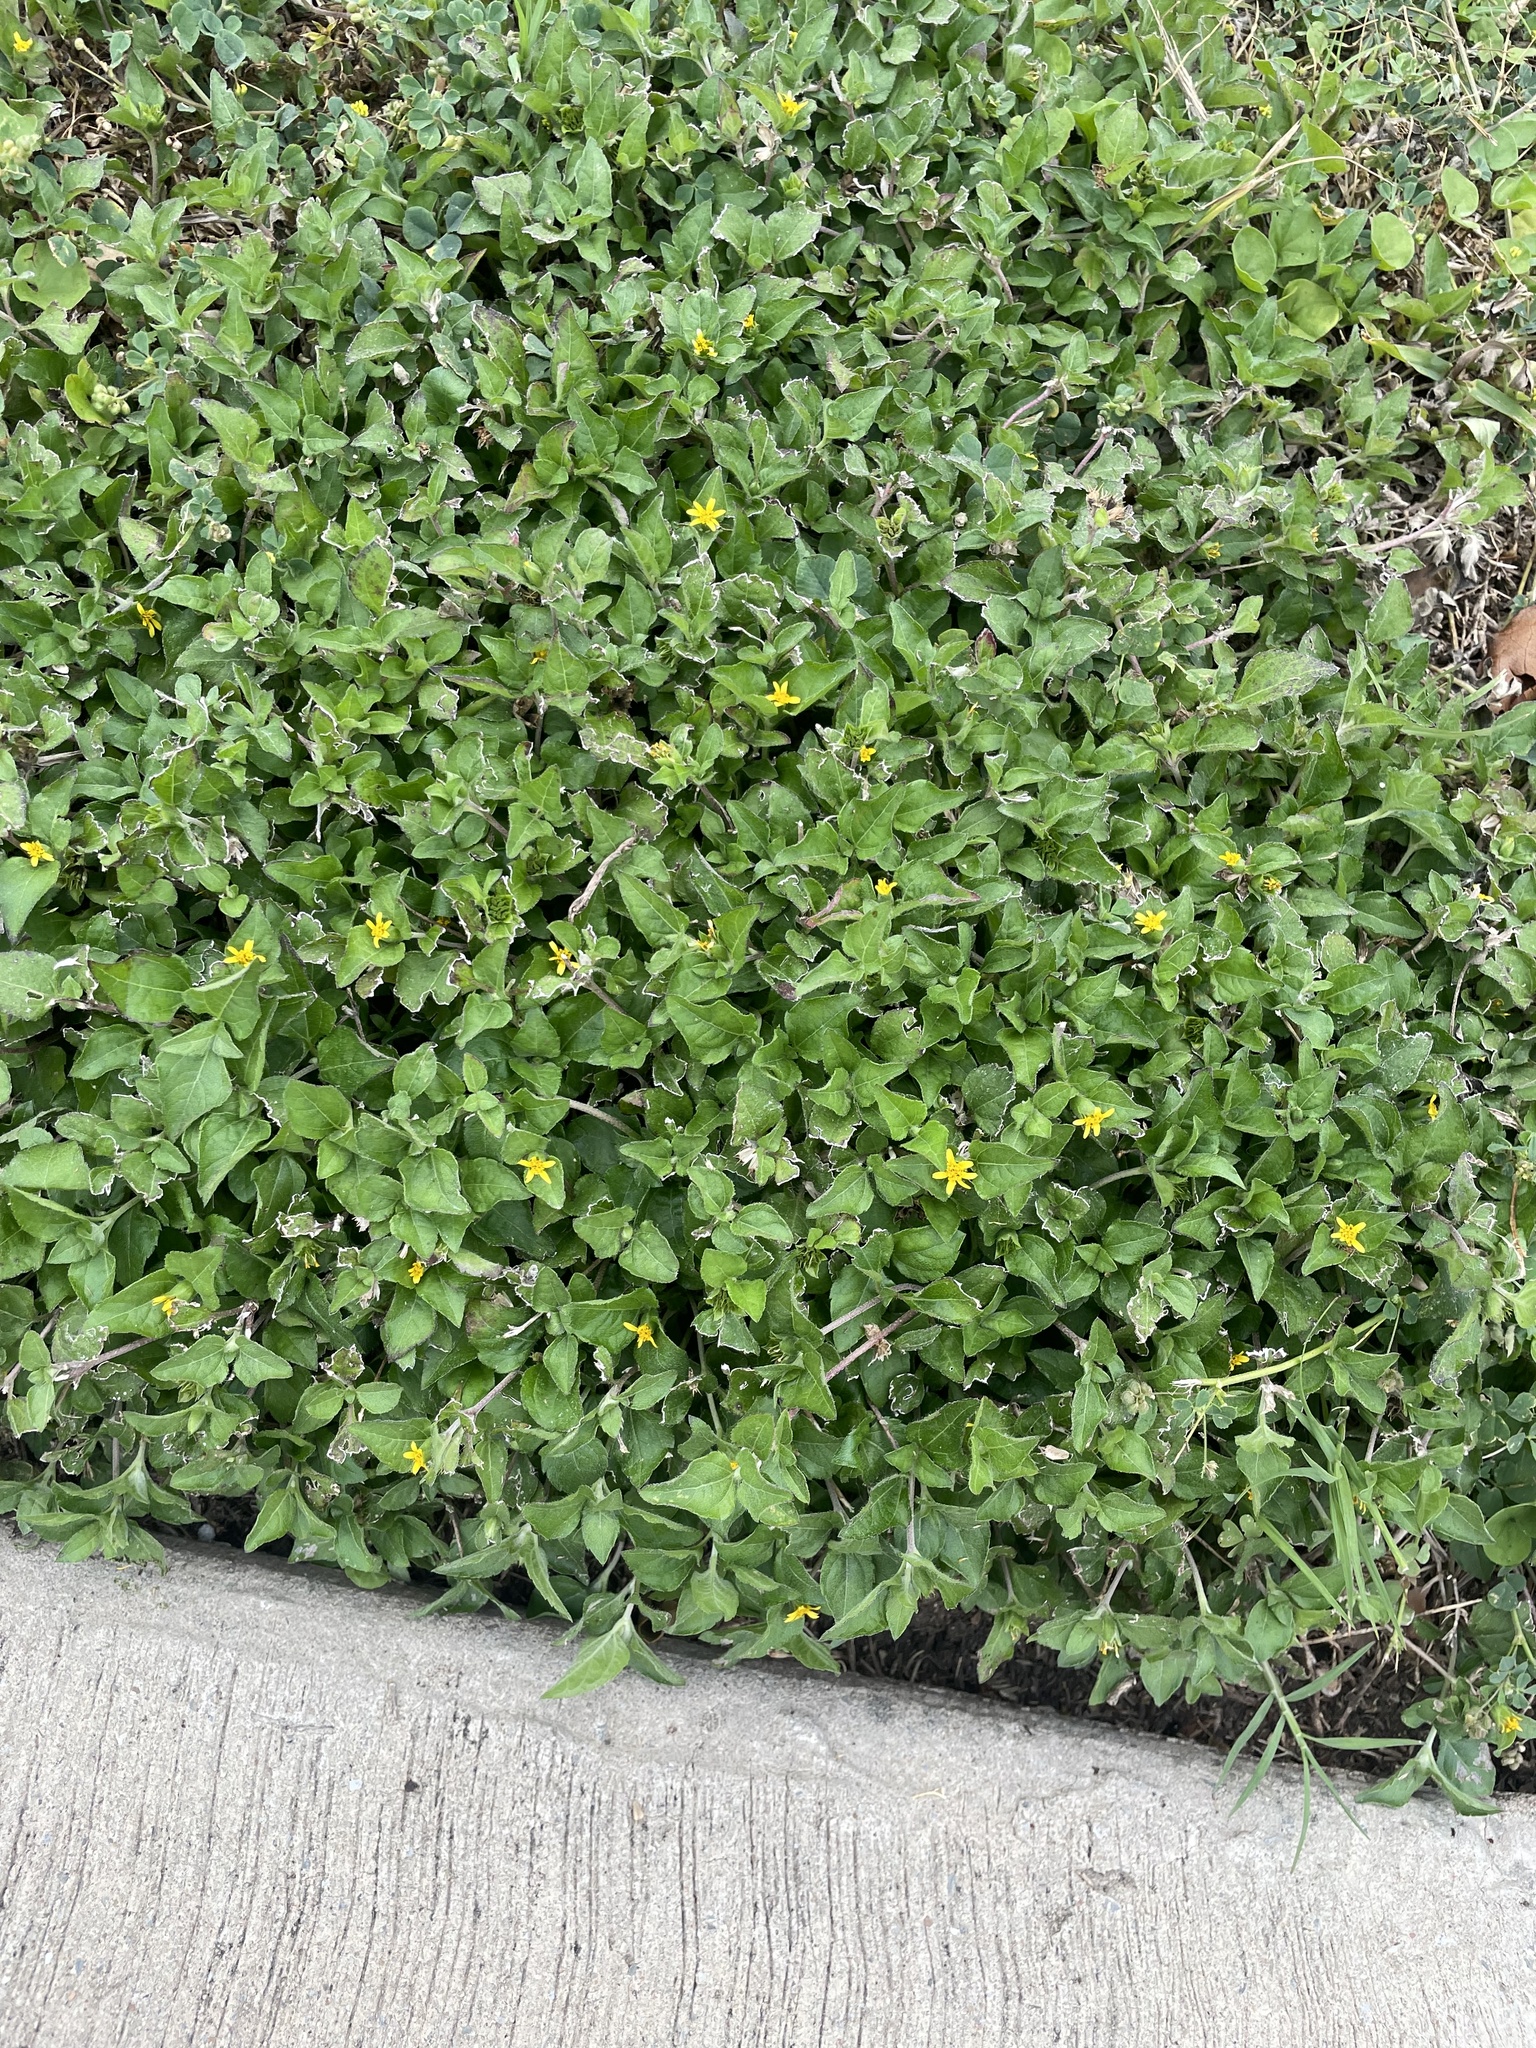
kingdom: Plantae
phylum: Tracheophyta
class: Magnoliopsida
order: Asterales
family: Asteraceae
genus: Calyptocarpus
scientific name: Calyptocarpus vialis
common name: Straggler daisy
